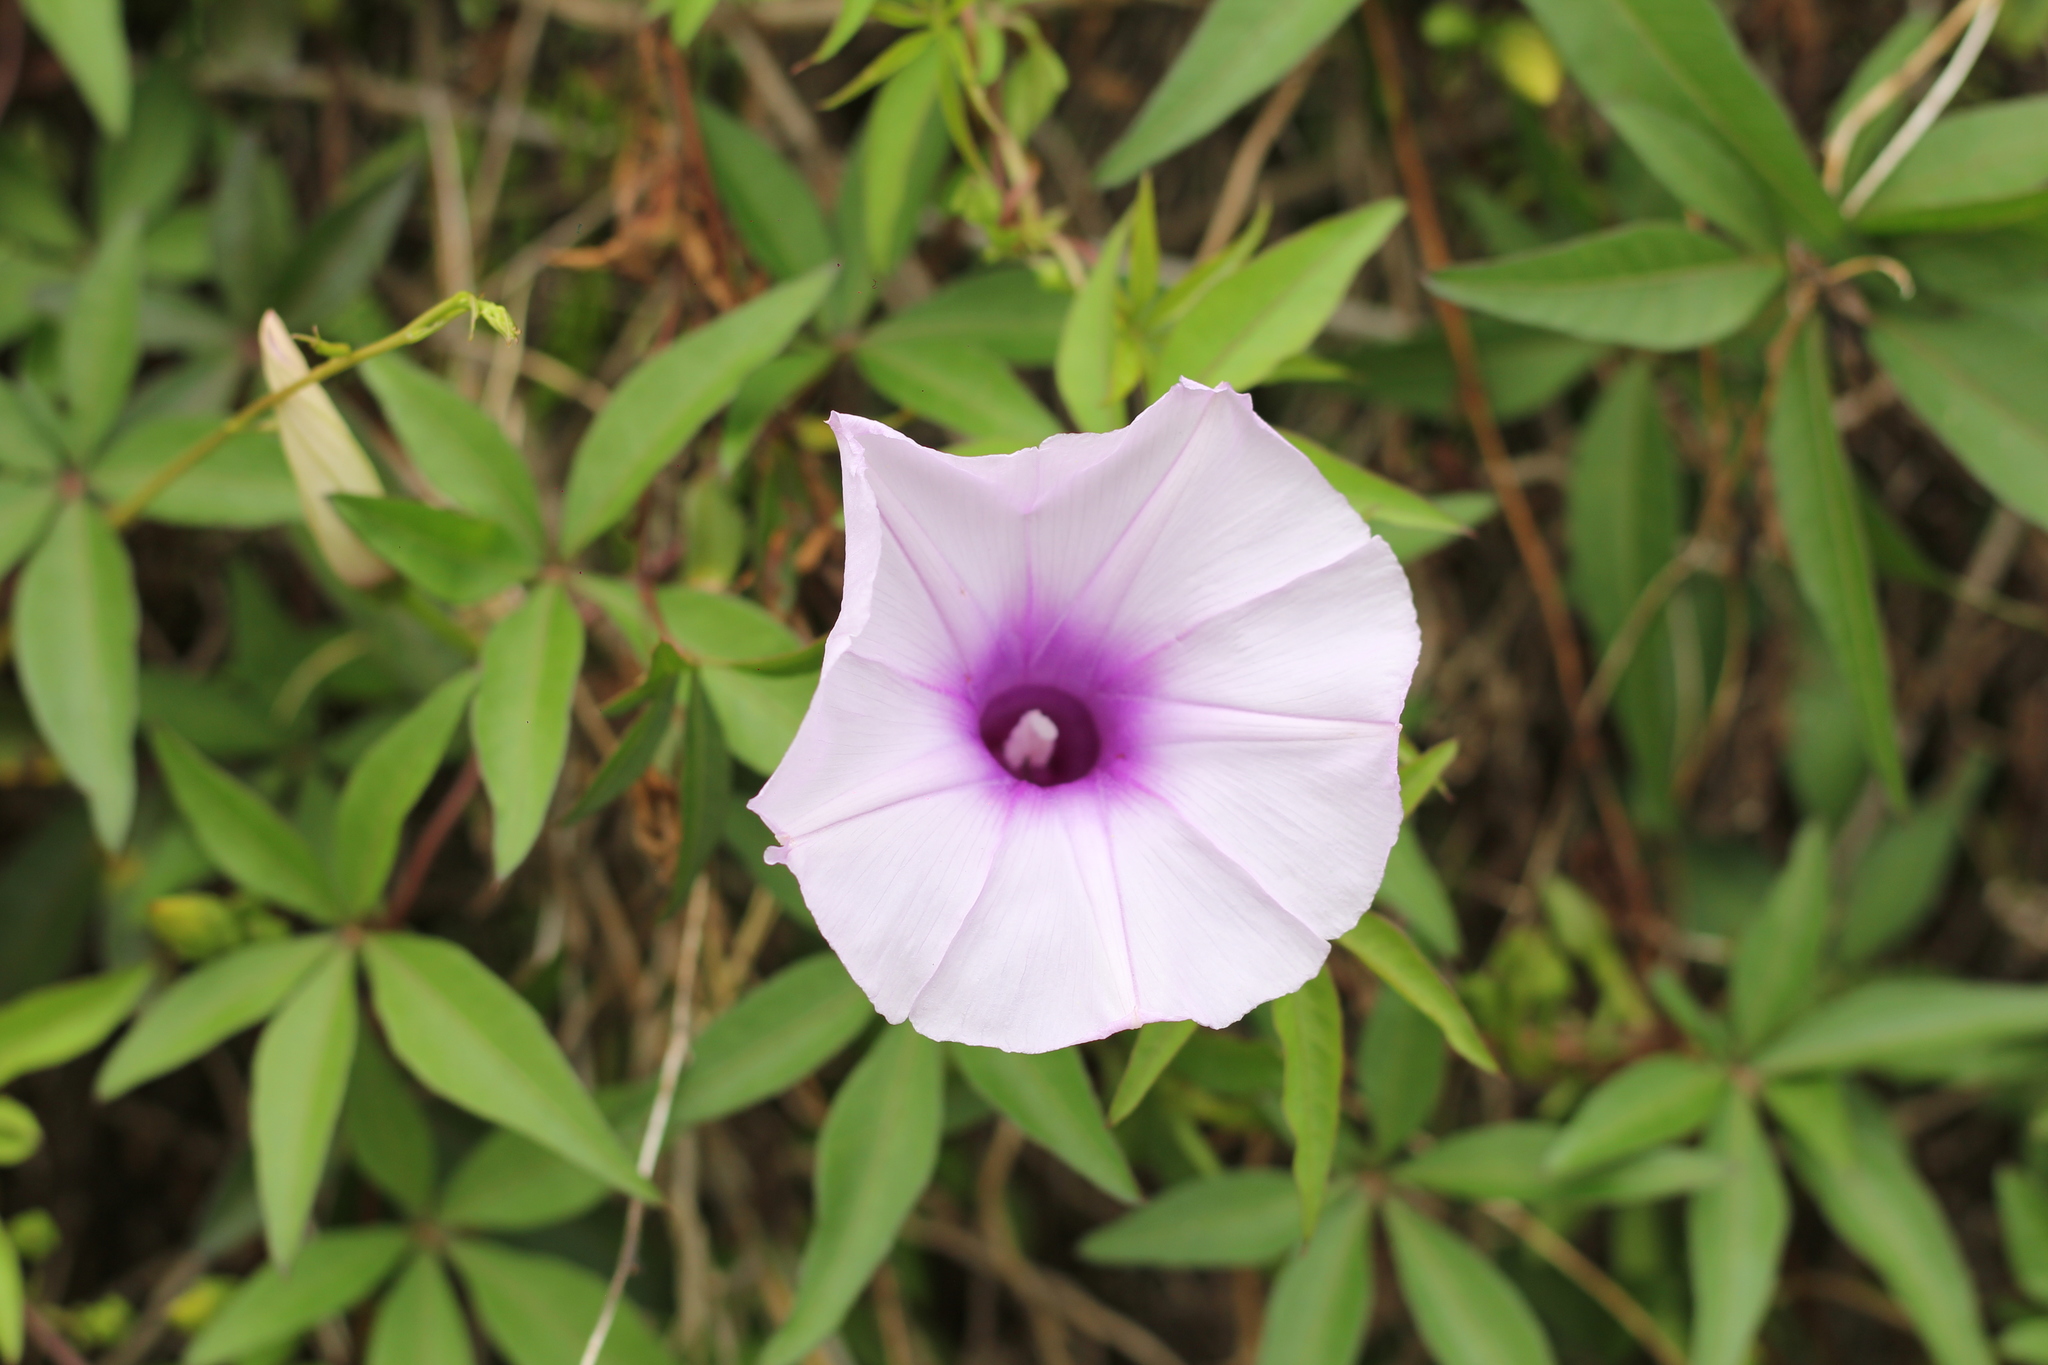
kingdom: Plantae
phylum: Tracheophyta
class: Magnoliopsida
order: Solanales
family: Convolvulaceae
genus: Ipomoea
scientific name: Ipomoea cairica
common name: Mile a minute vine
